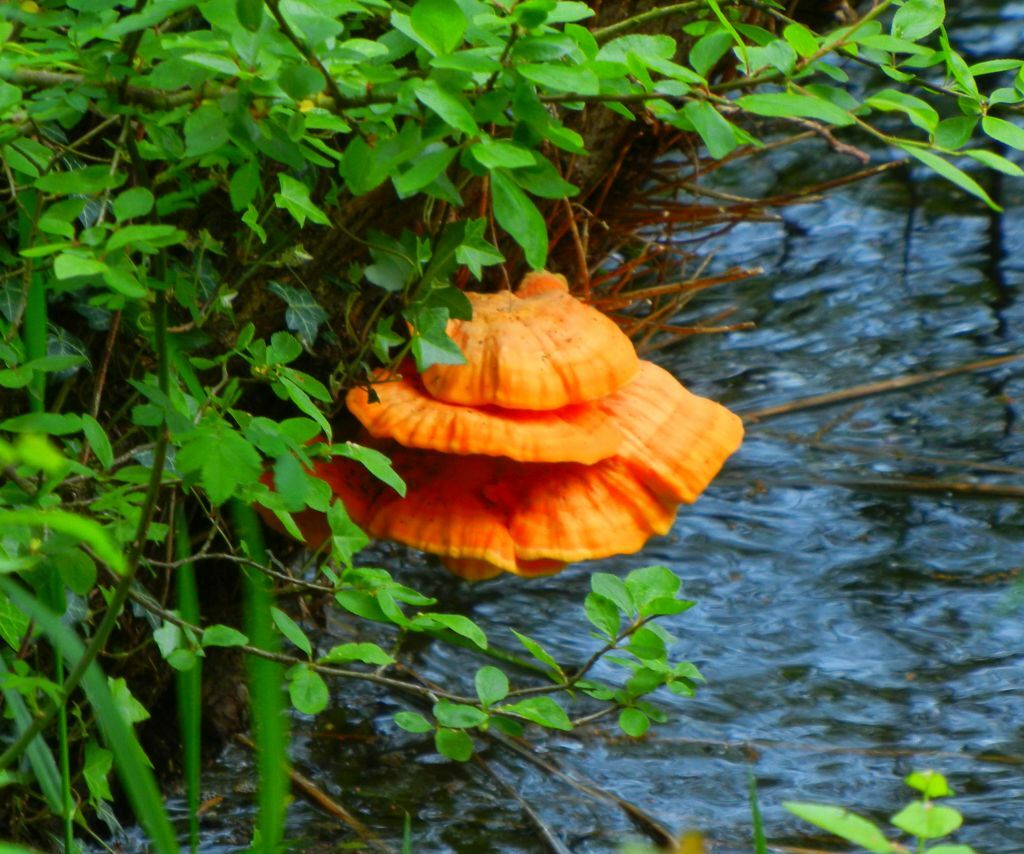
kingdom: Fungi
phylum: Basidiomycota
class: Agaricomycetes
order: Polyporales
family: Laetiporaceae
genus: Laetiporus
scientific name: Laetiporus sulphureus
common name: Chicken of the woods
